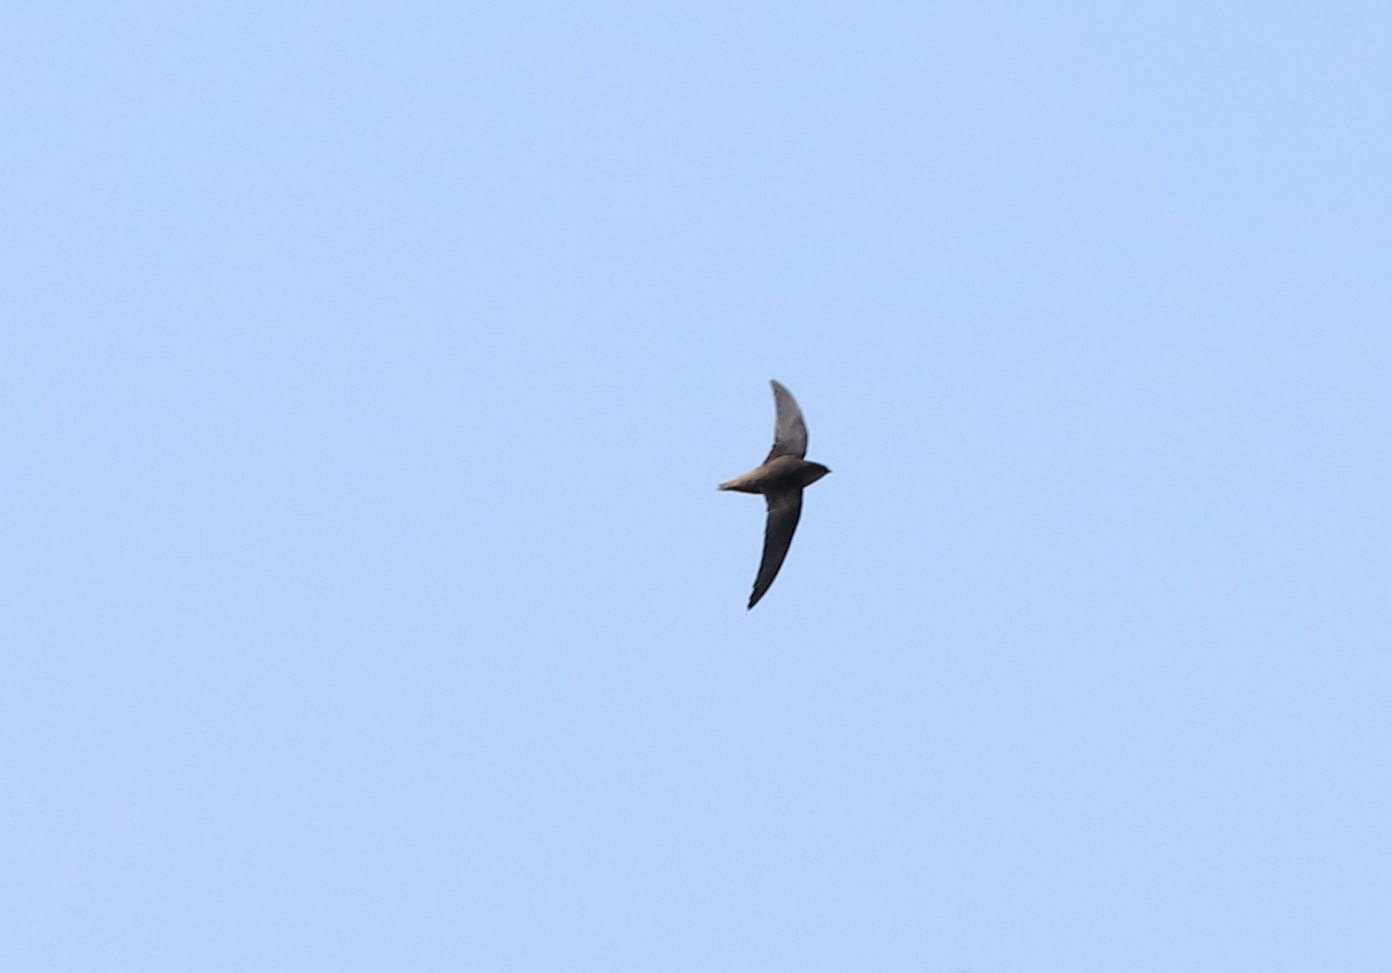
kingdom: Animalia
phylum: Chordata
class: Aves
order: Apodiformes
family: Apodidae
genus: Chaetura
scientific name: Chaetura pelagica
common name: Chimney swift
